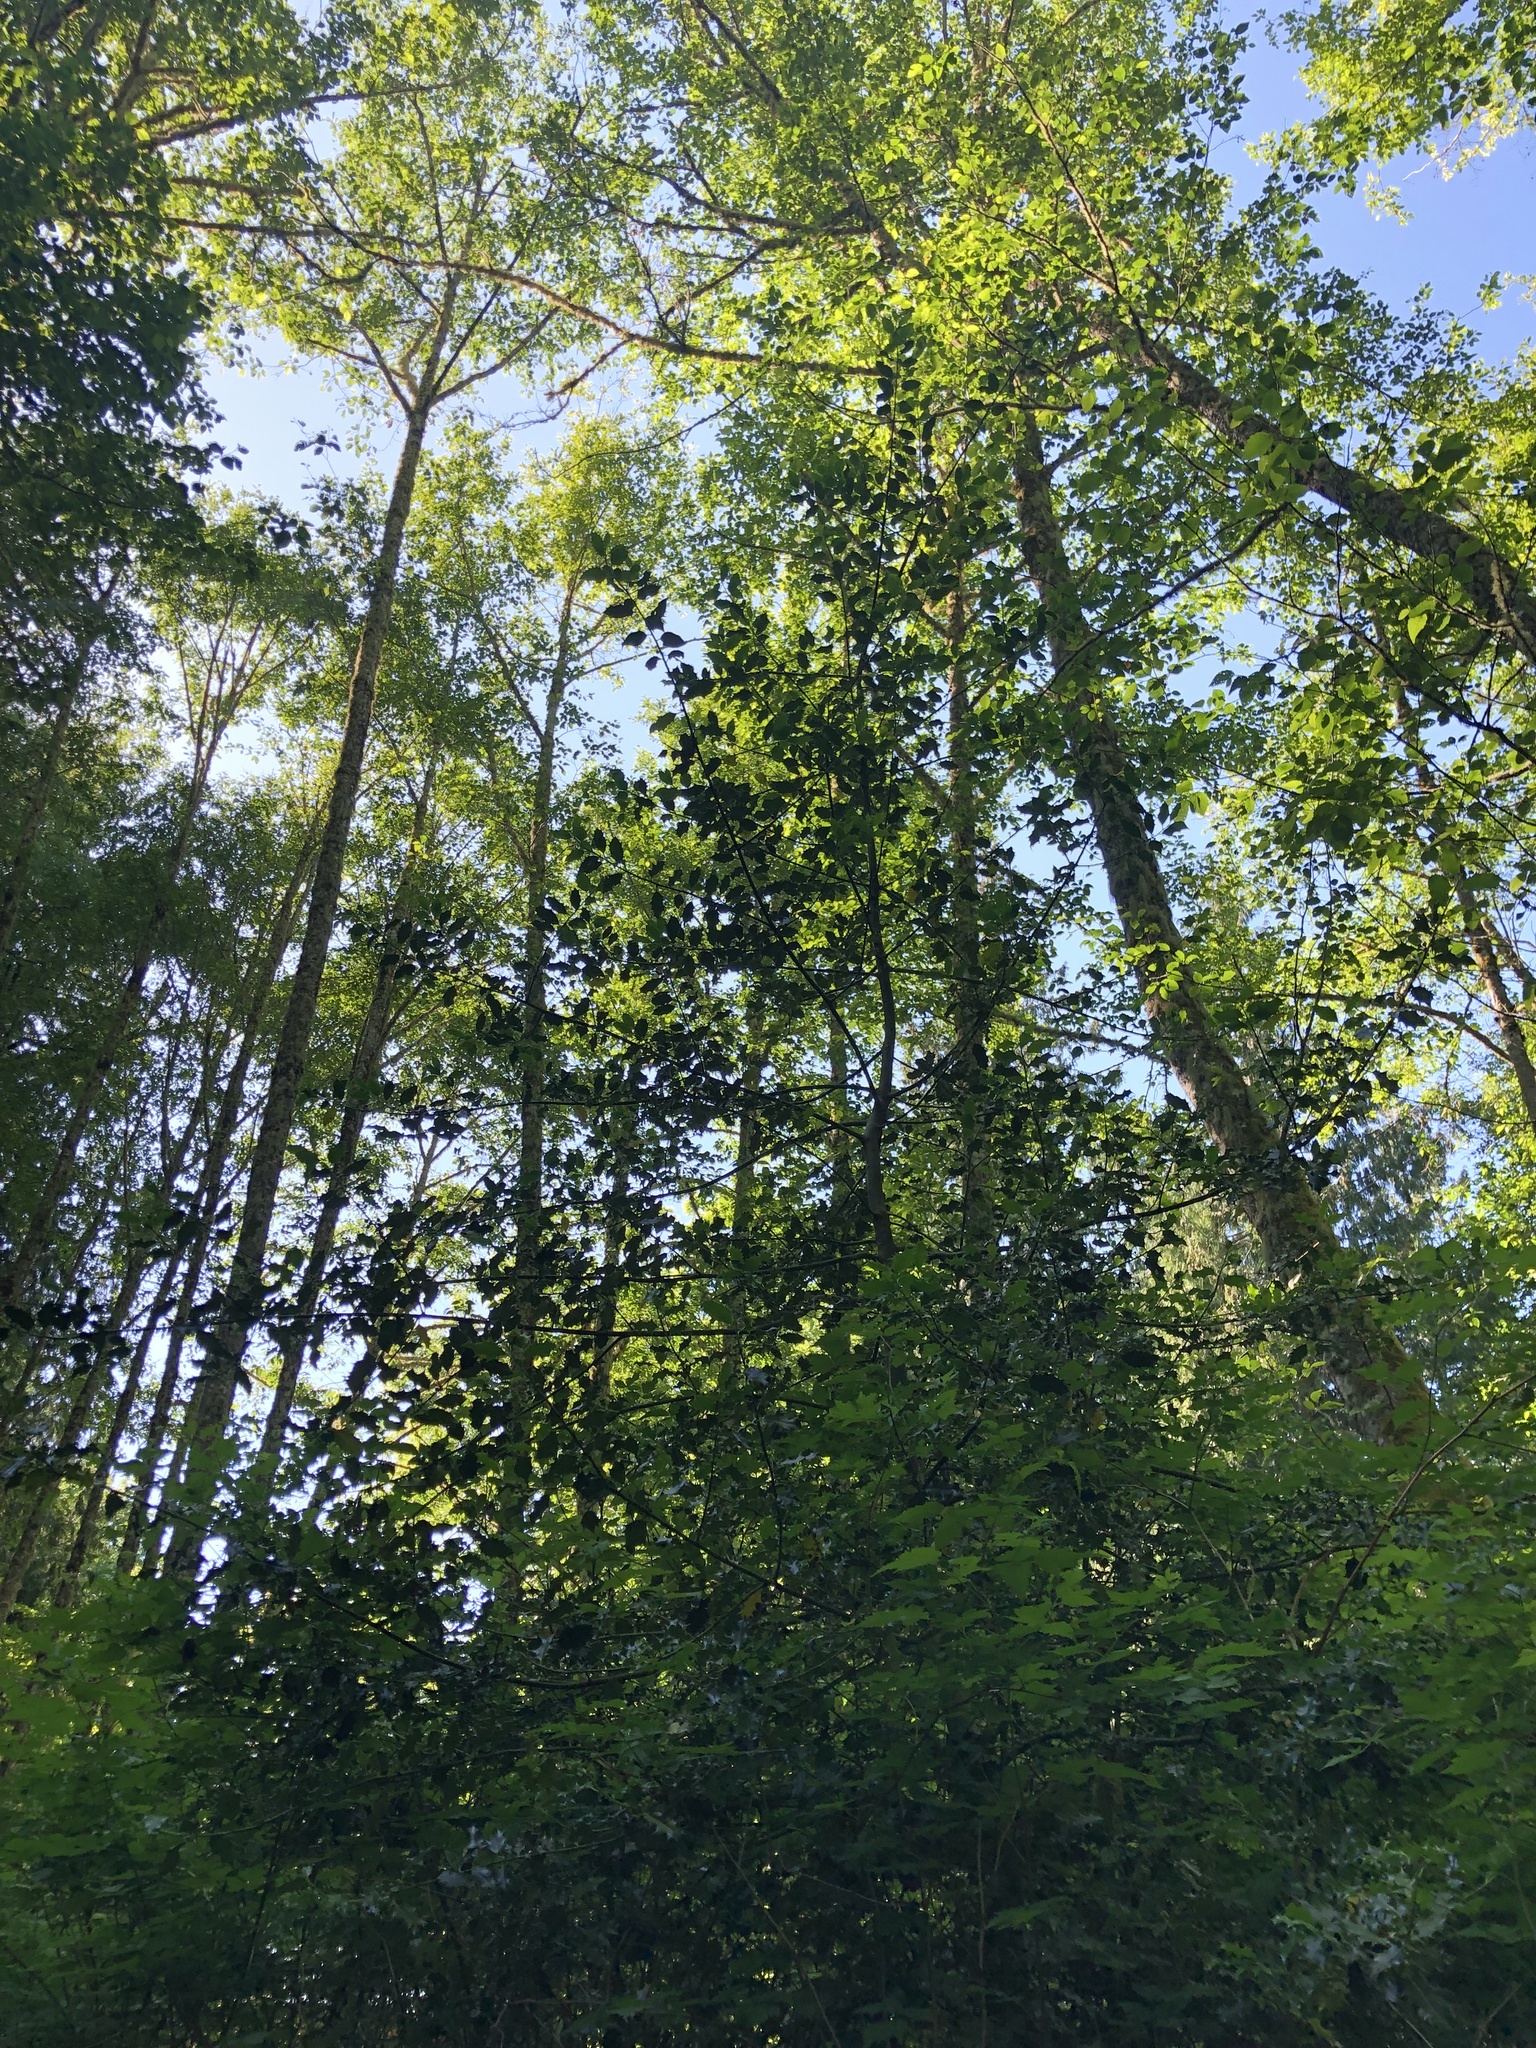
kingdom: Plantae
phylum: Tracheophyta
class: Magnoliopsida
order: Aquifoliales
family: Aquifoliaceae
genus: Ilex
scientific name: Ilex aquifolium
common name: English holly
